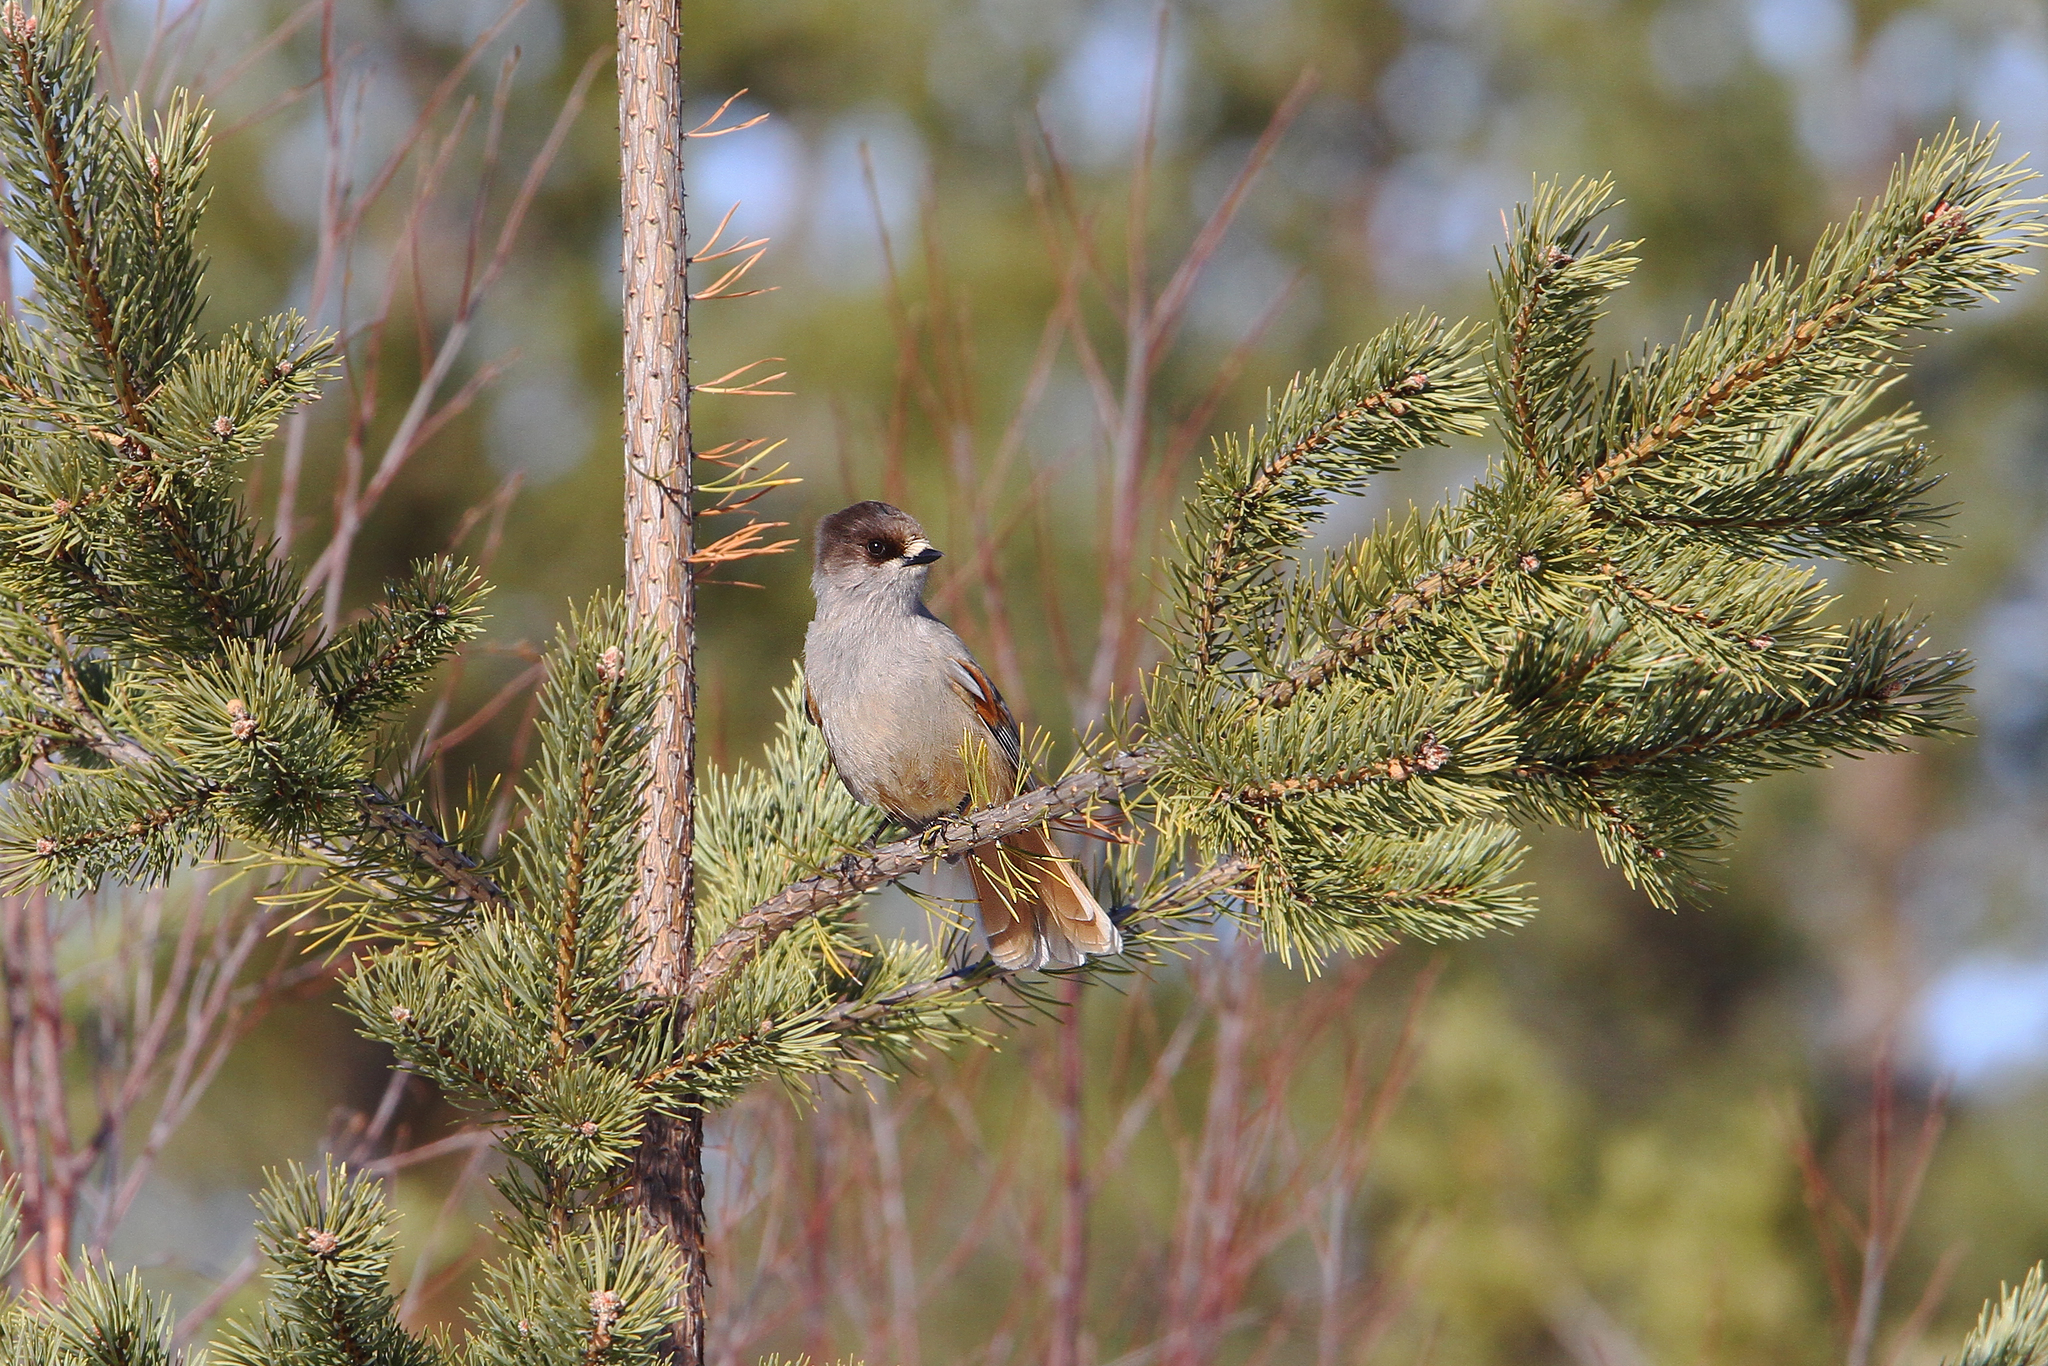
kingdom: Animalia
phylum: Chordata
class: Aves
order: Passeriformes
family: Corvidae
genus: Perisoreus
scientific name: Perisoreus infaustus
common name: Siberian jay
